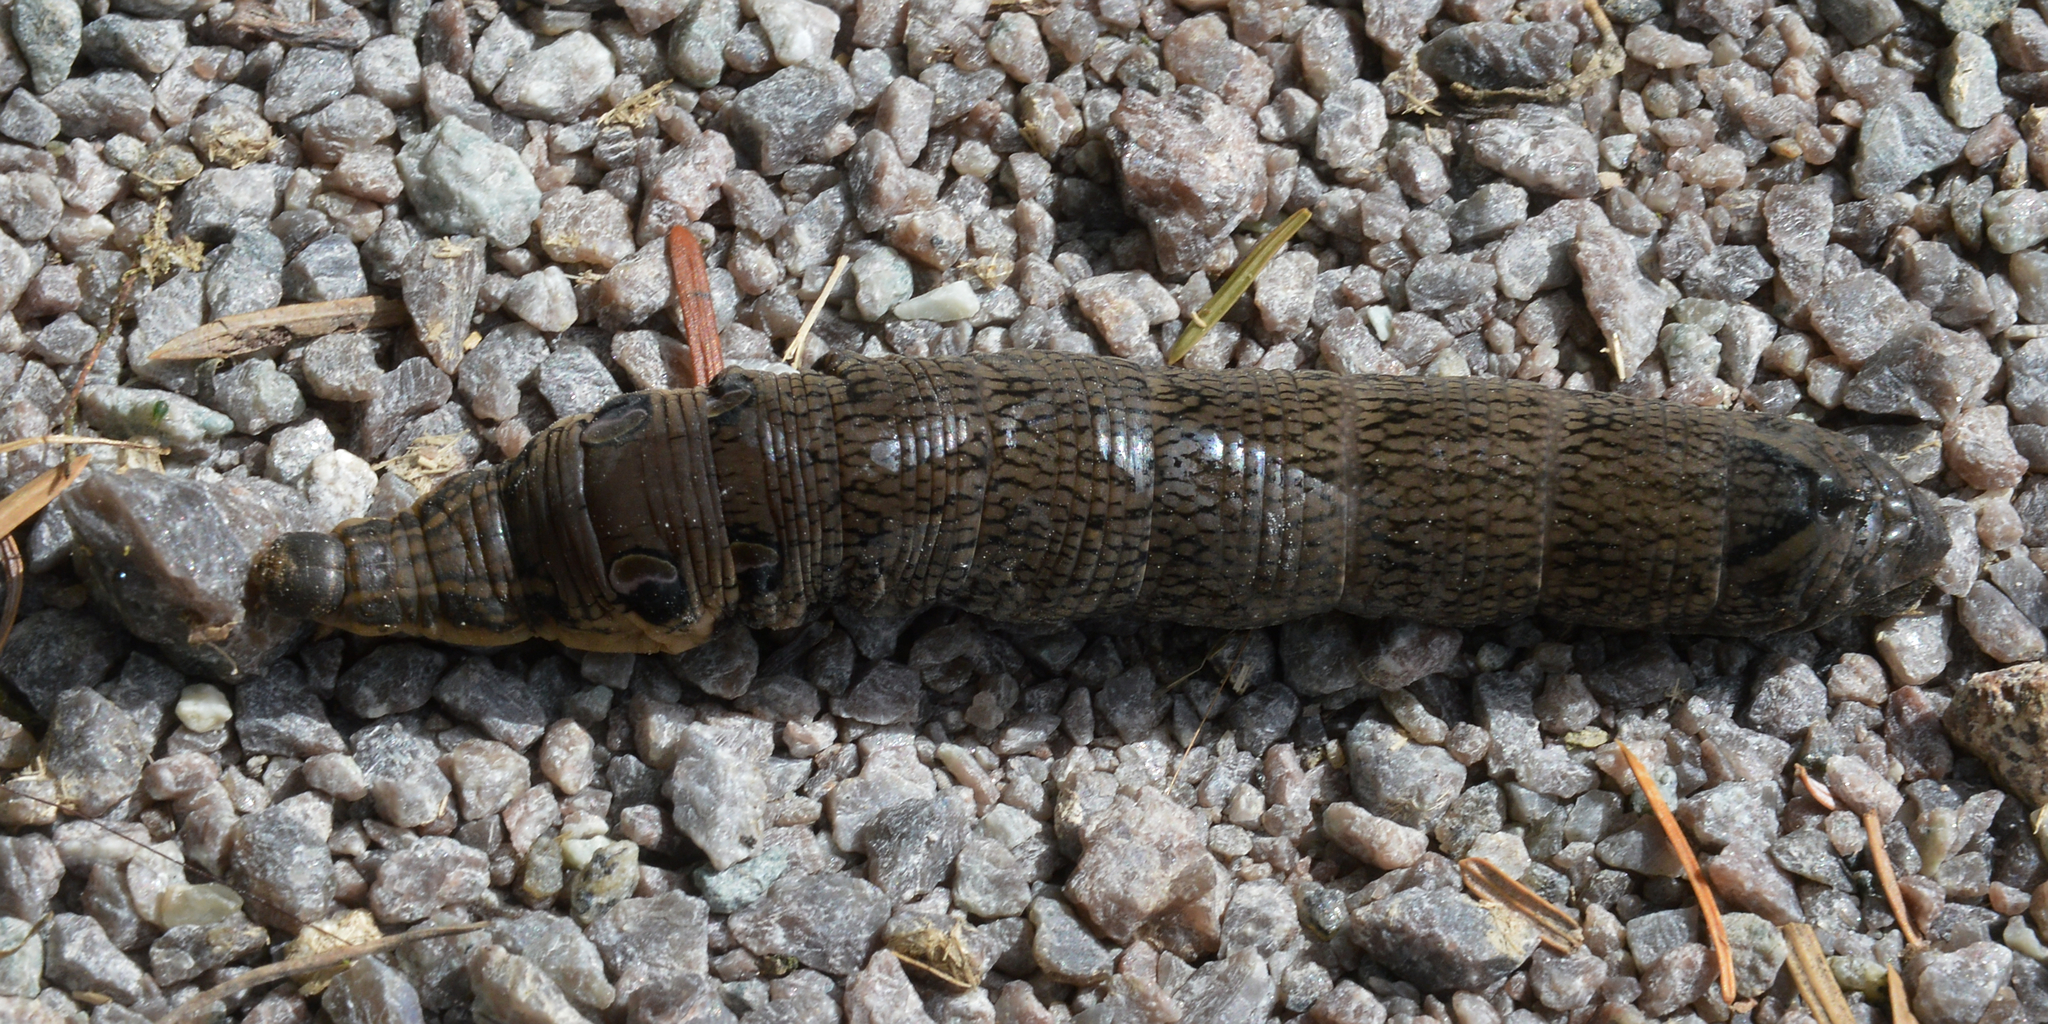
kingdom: Animalia
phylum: Arthropoda
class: Insecta
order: Lepidoptera
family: Sphingidae
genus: Deilephila
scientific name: Deilephila elpenor
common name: Elephant hawk-moth
